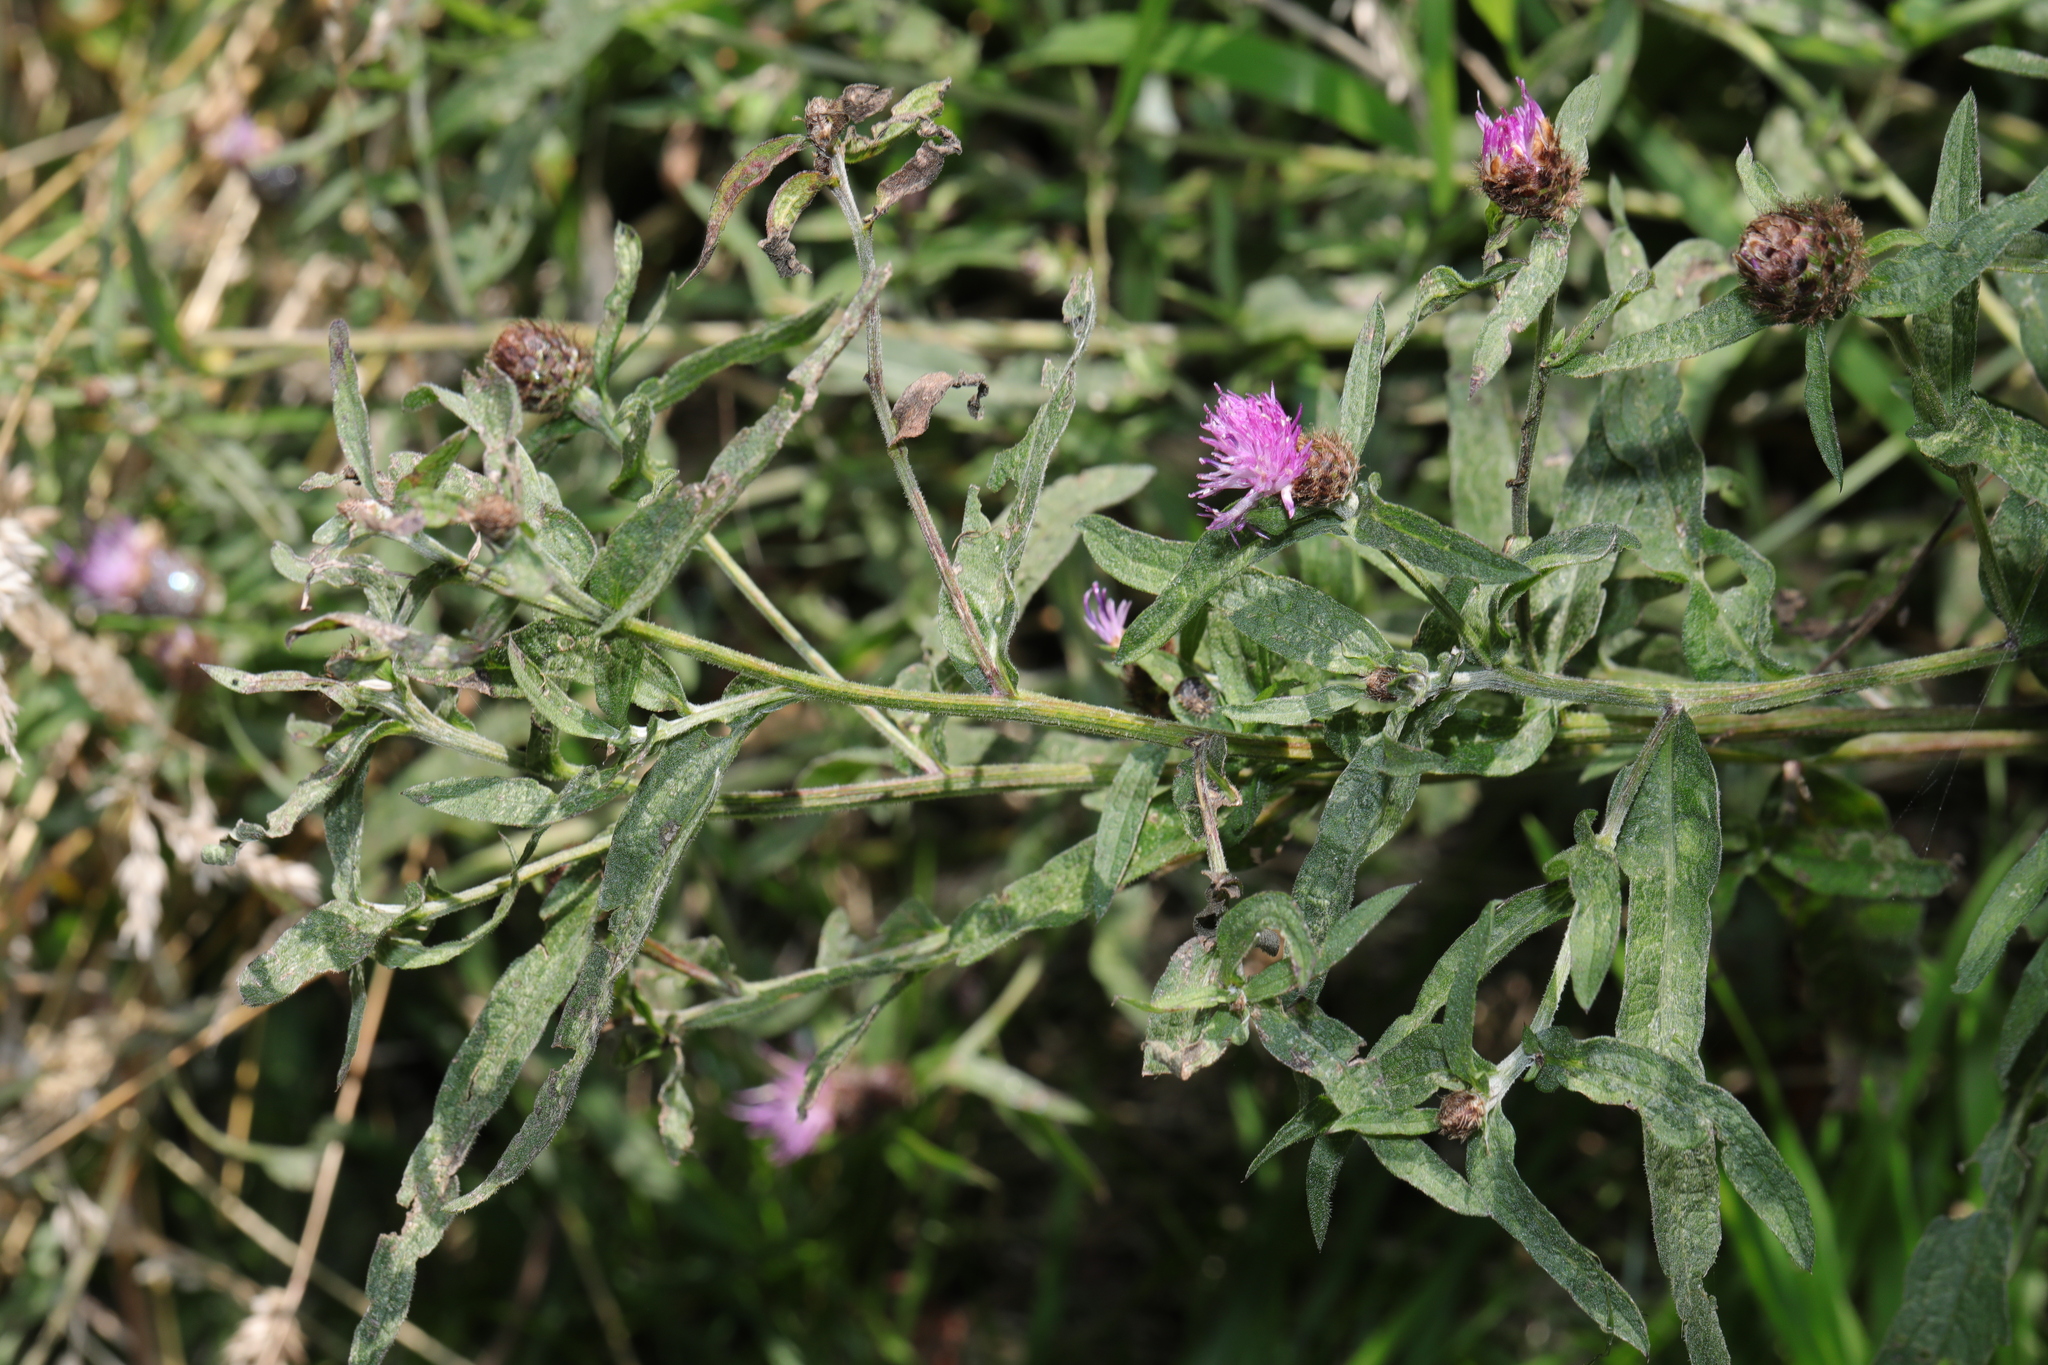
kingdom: Plantae
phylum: Tracheophyta
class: Magnoliopsida
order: Asterales
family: Asteraceae
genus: Centaurea
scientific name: Centaurea nigra
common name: Lesser knapweed
